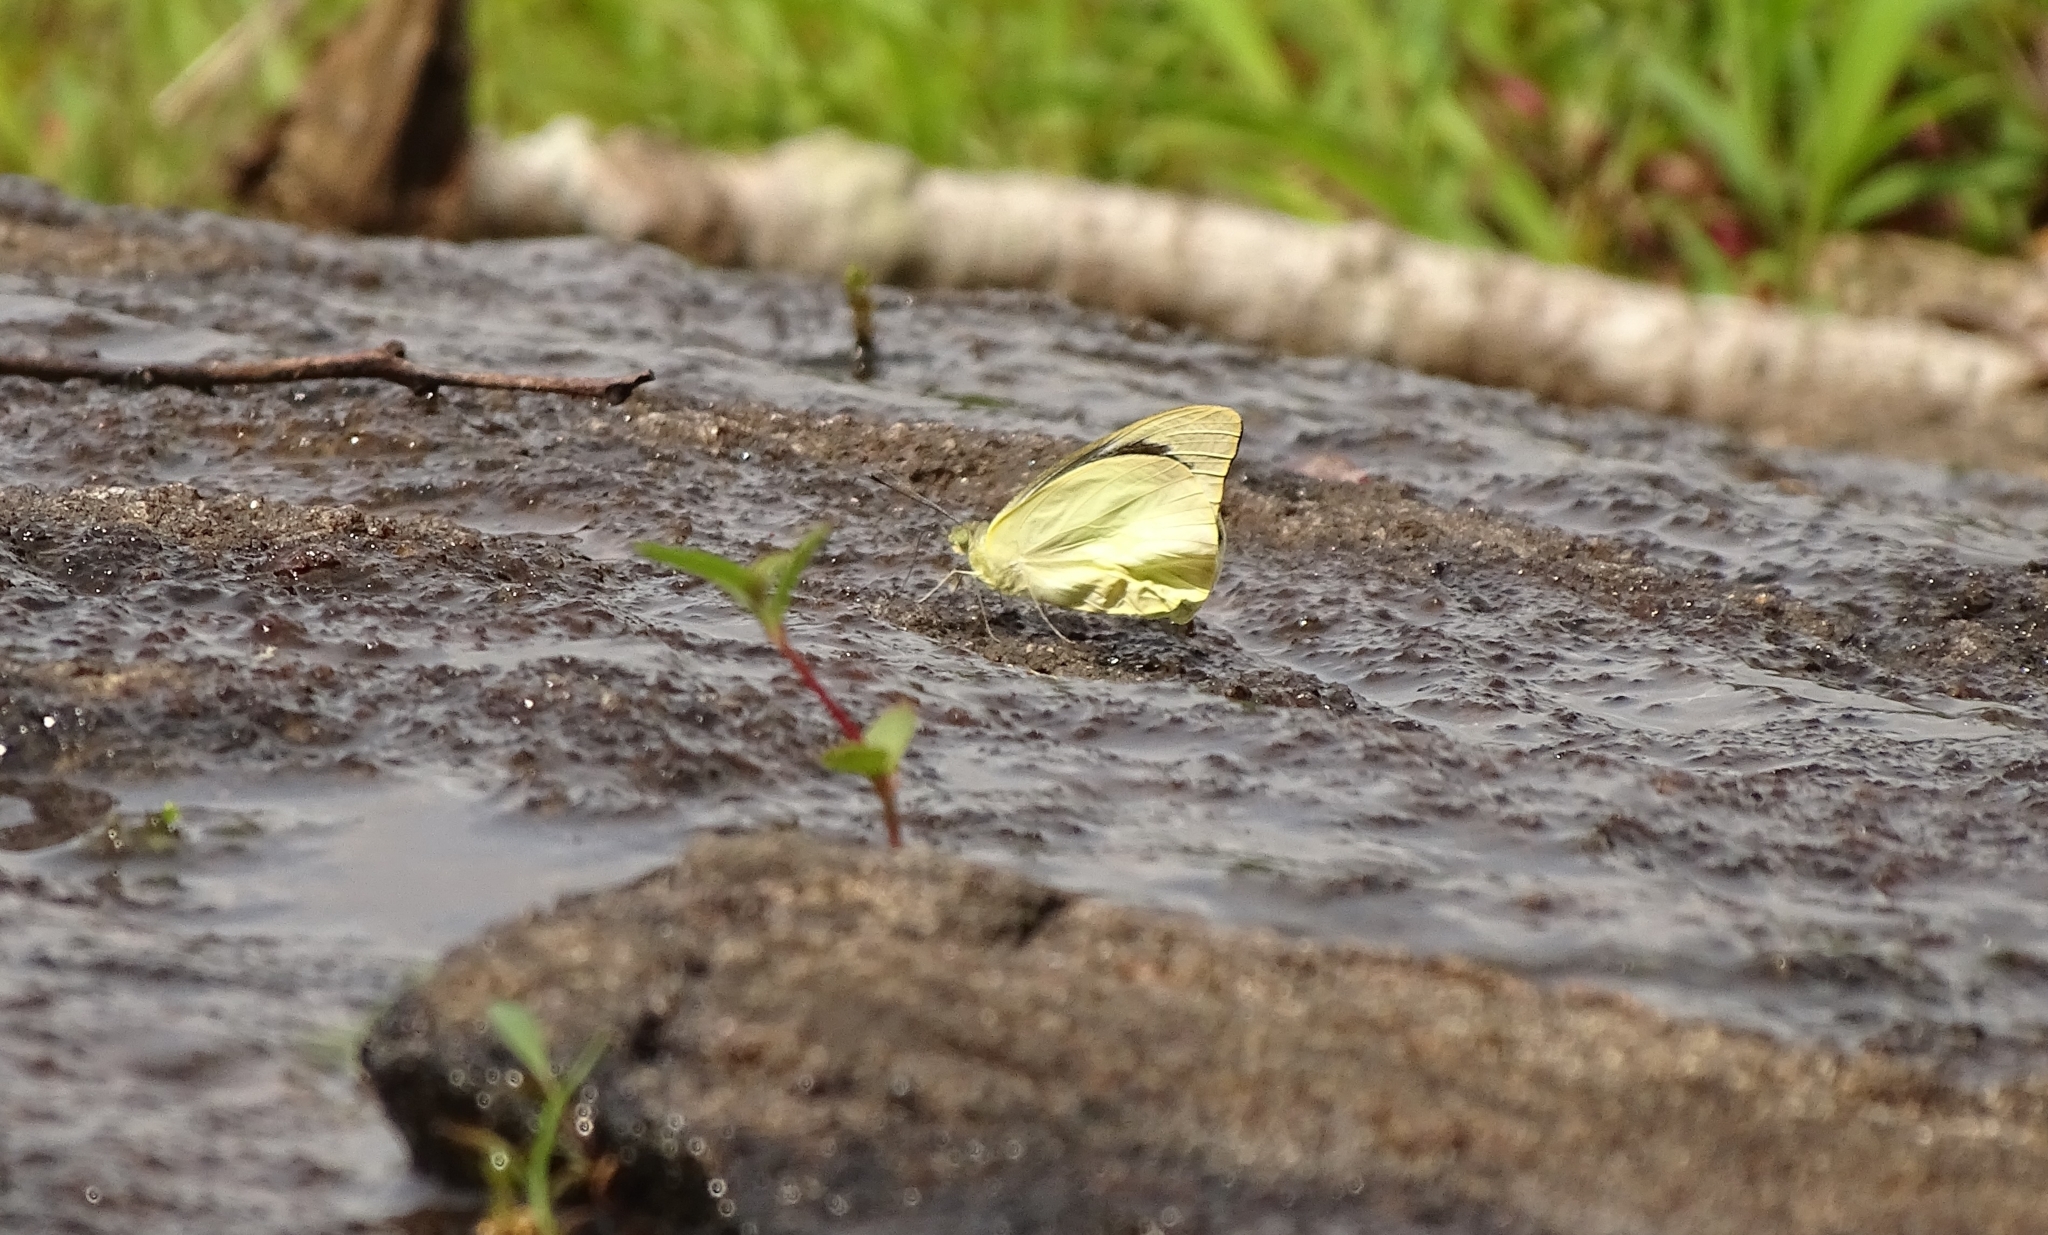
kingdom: Animalia
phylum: Arthropoda
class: Insecta
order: Lepidoptera
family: Pieridae
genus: Appias
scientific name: Appias albina
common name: Common albatross
